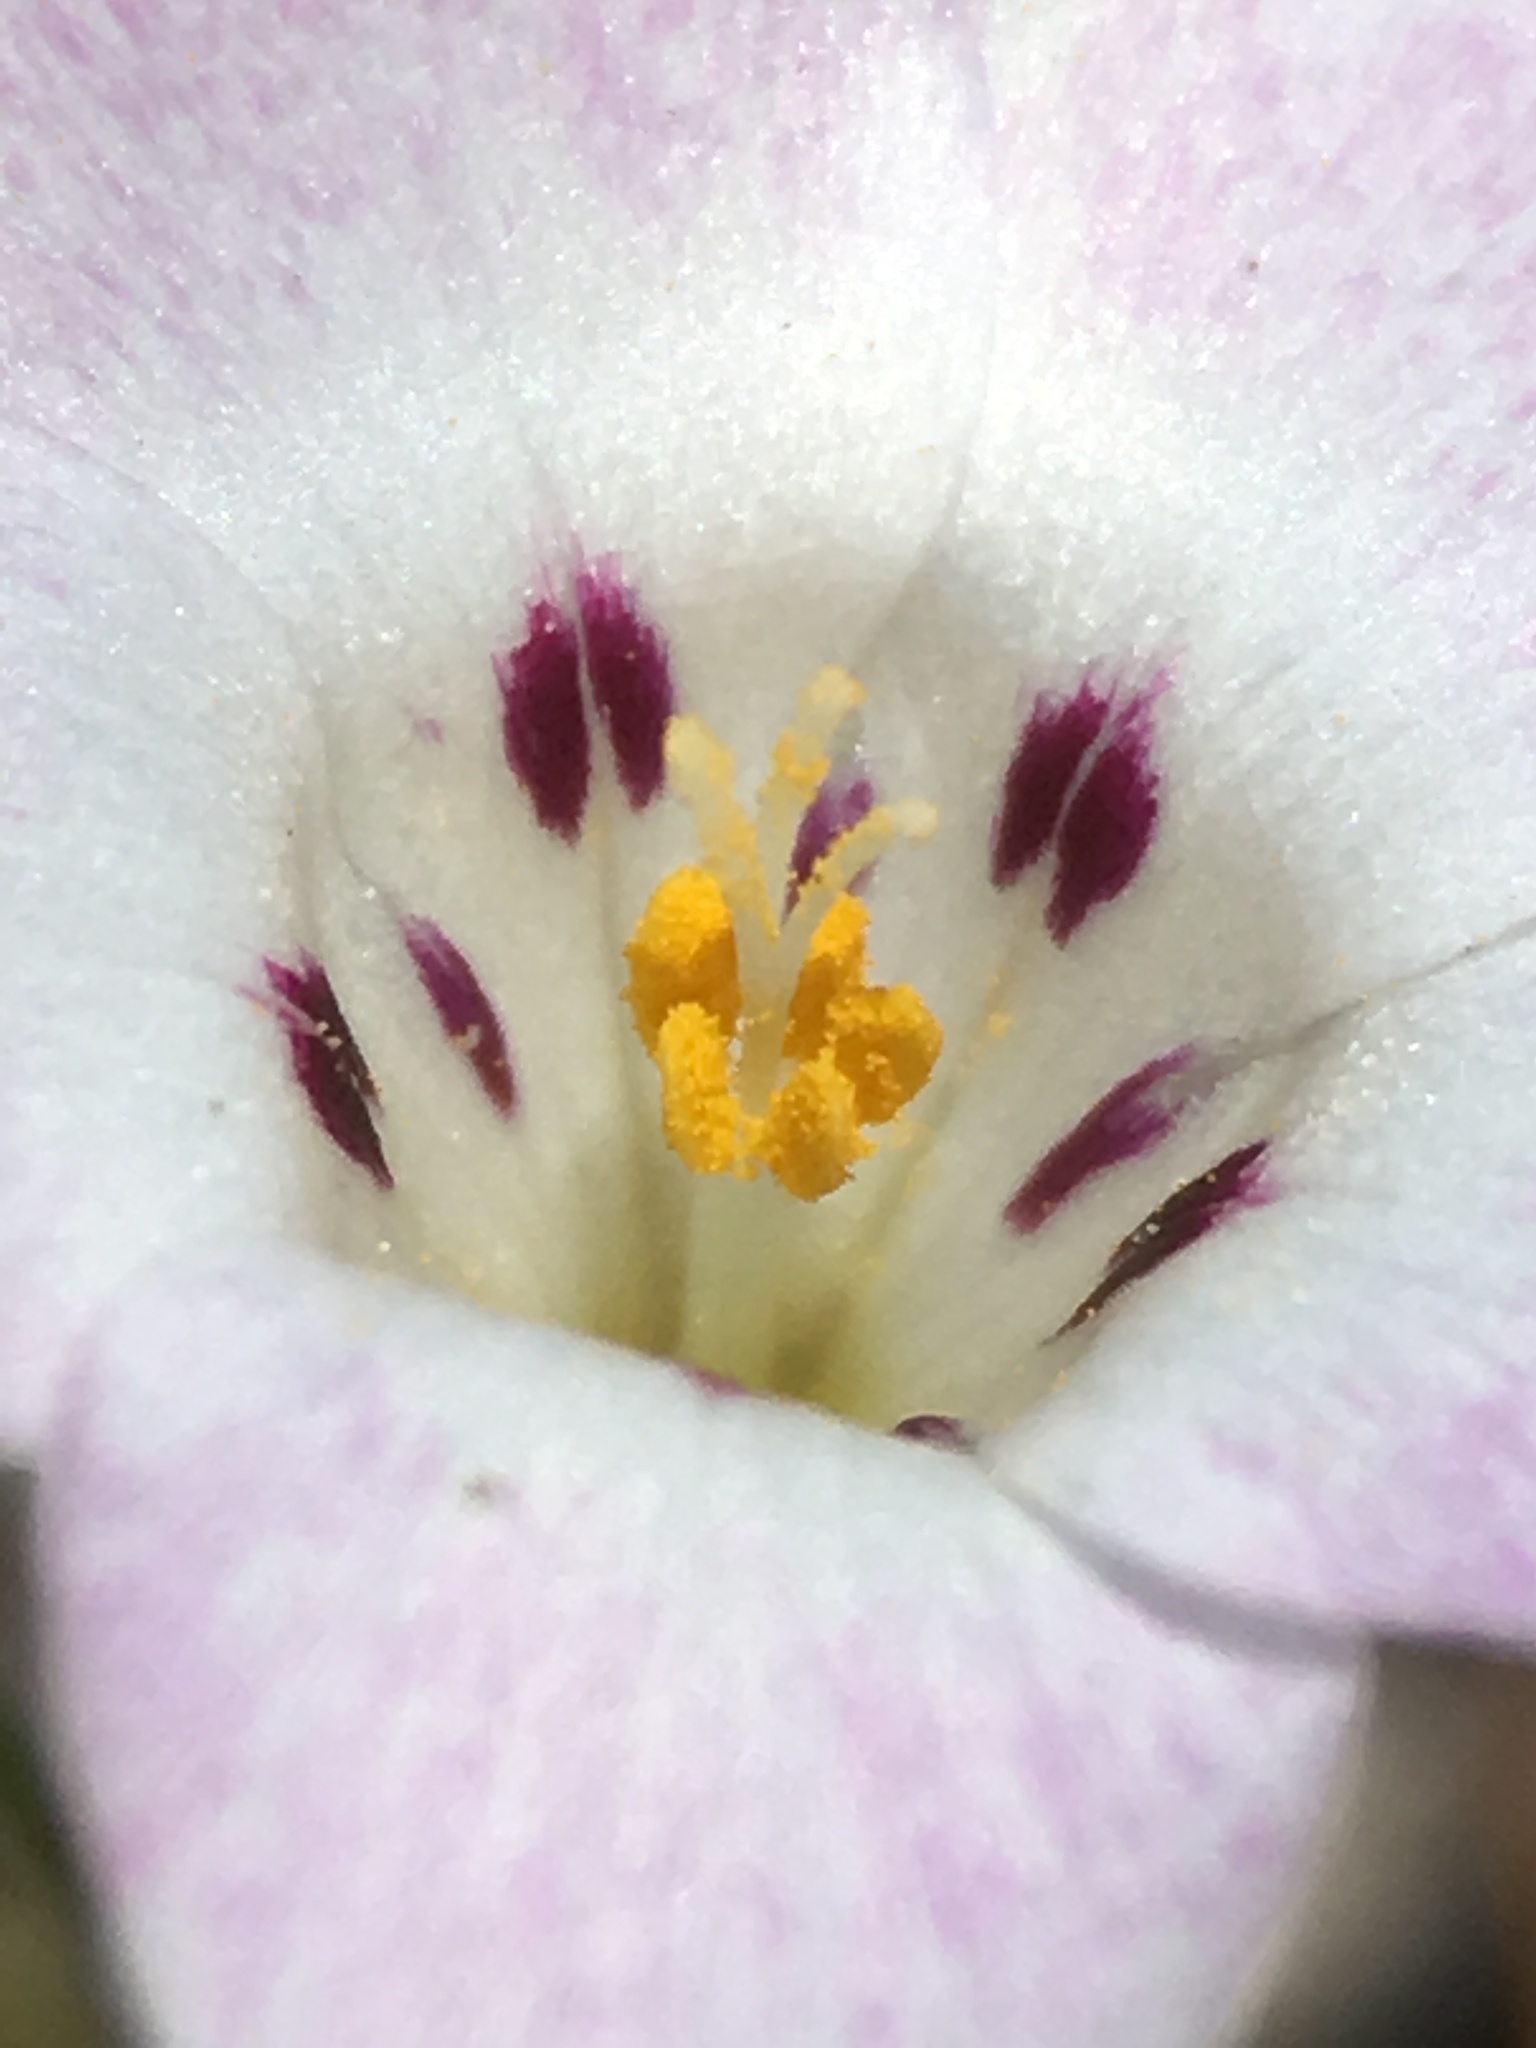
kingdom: Plantae
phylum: Tracheophyta
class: Magnoliopsida
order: Ericales
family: Polemoniaceae
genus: Linanthus
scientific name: Linanthus orcuttii
